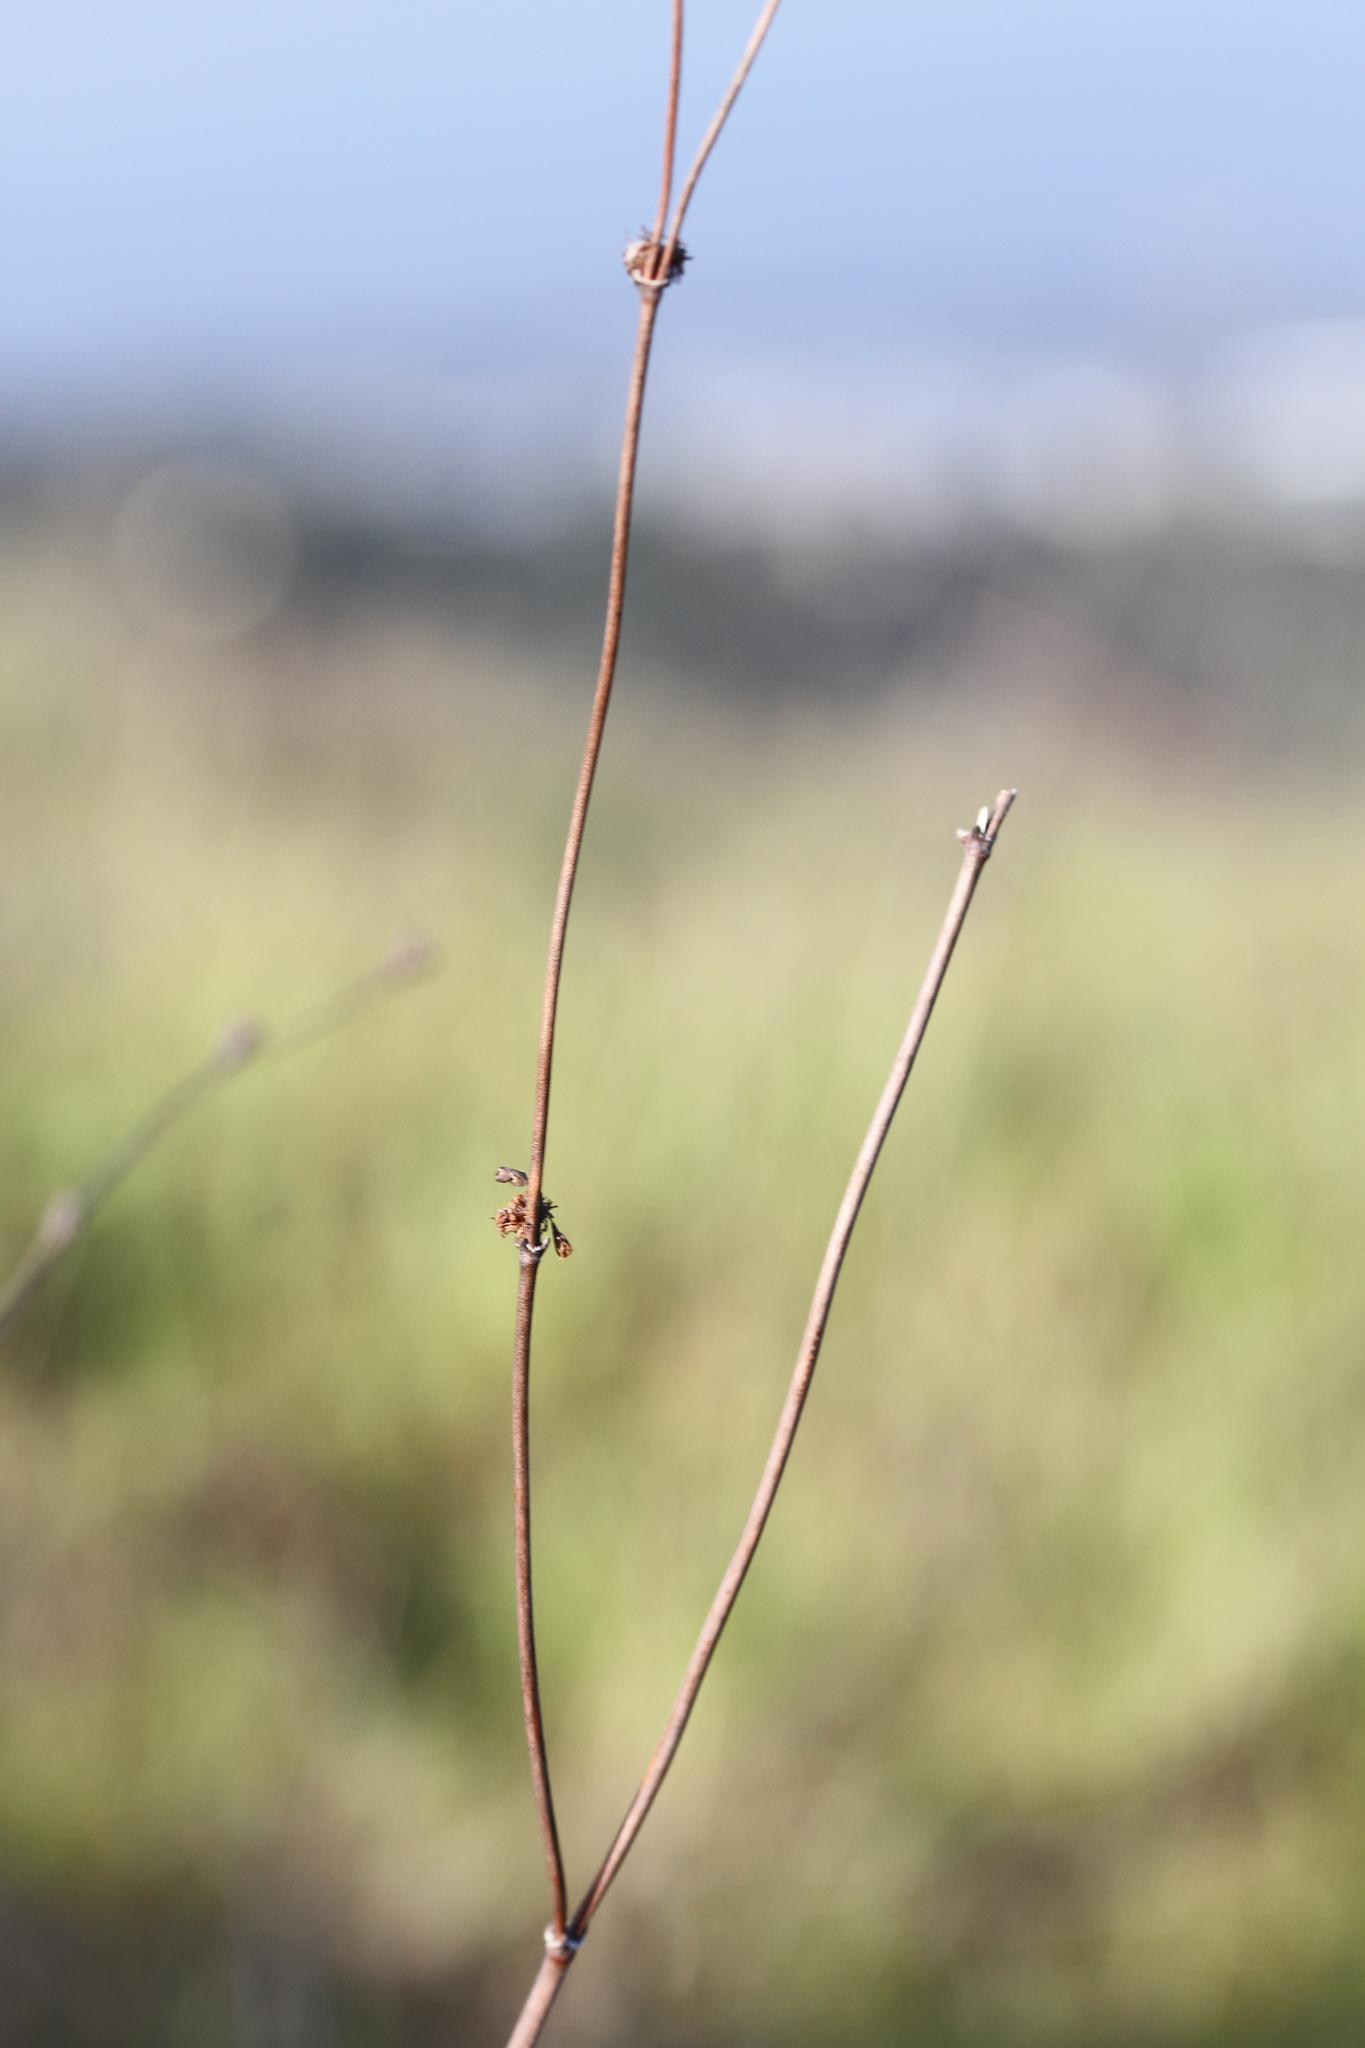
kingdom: Plantae
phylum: Tracheophyta
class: Magnoliopsida
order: Caryophyllales
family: Polygonaceae
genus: Eriogonum
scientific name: Eriogonum nudum
